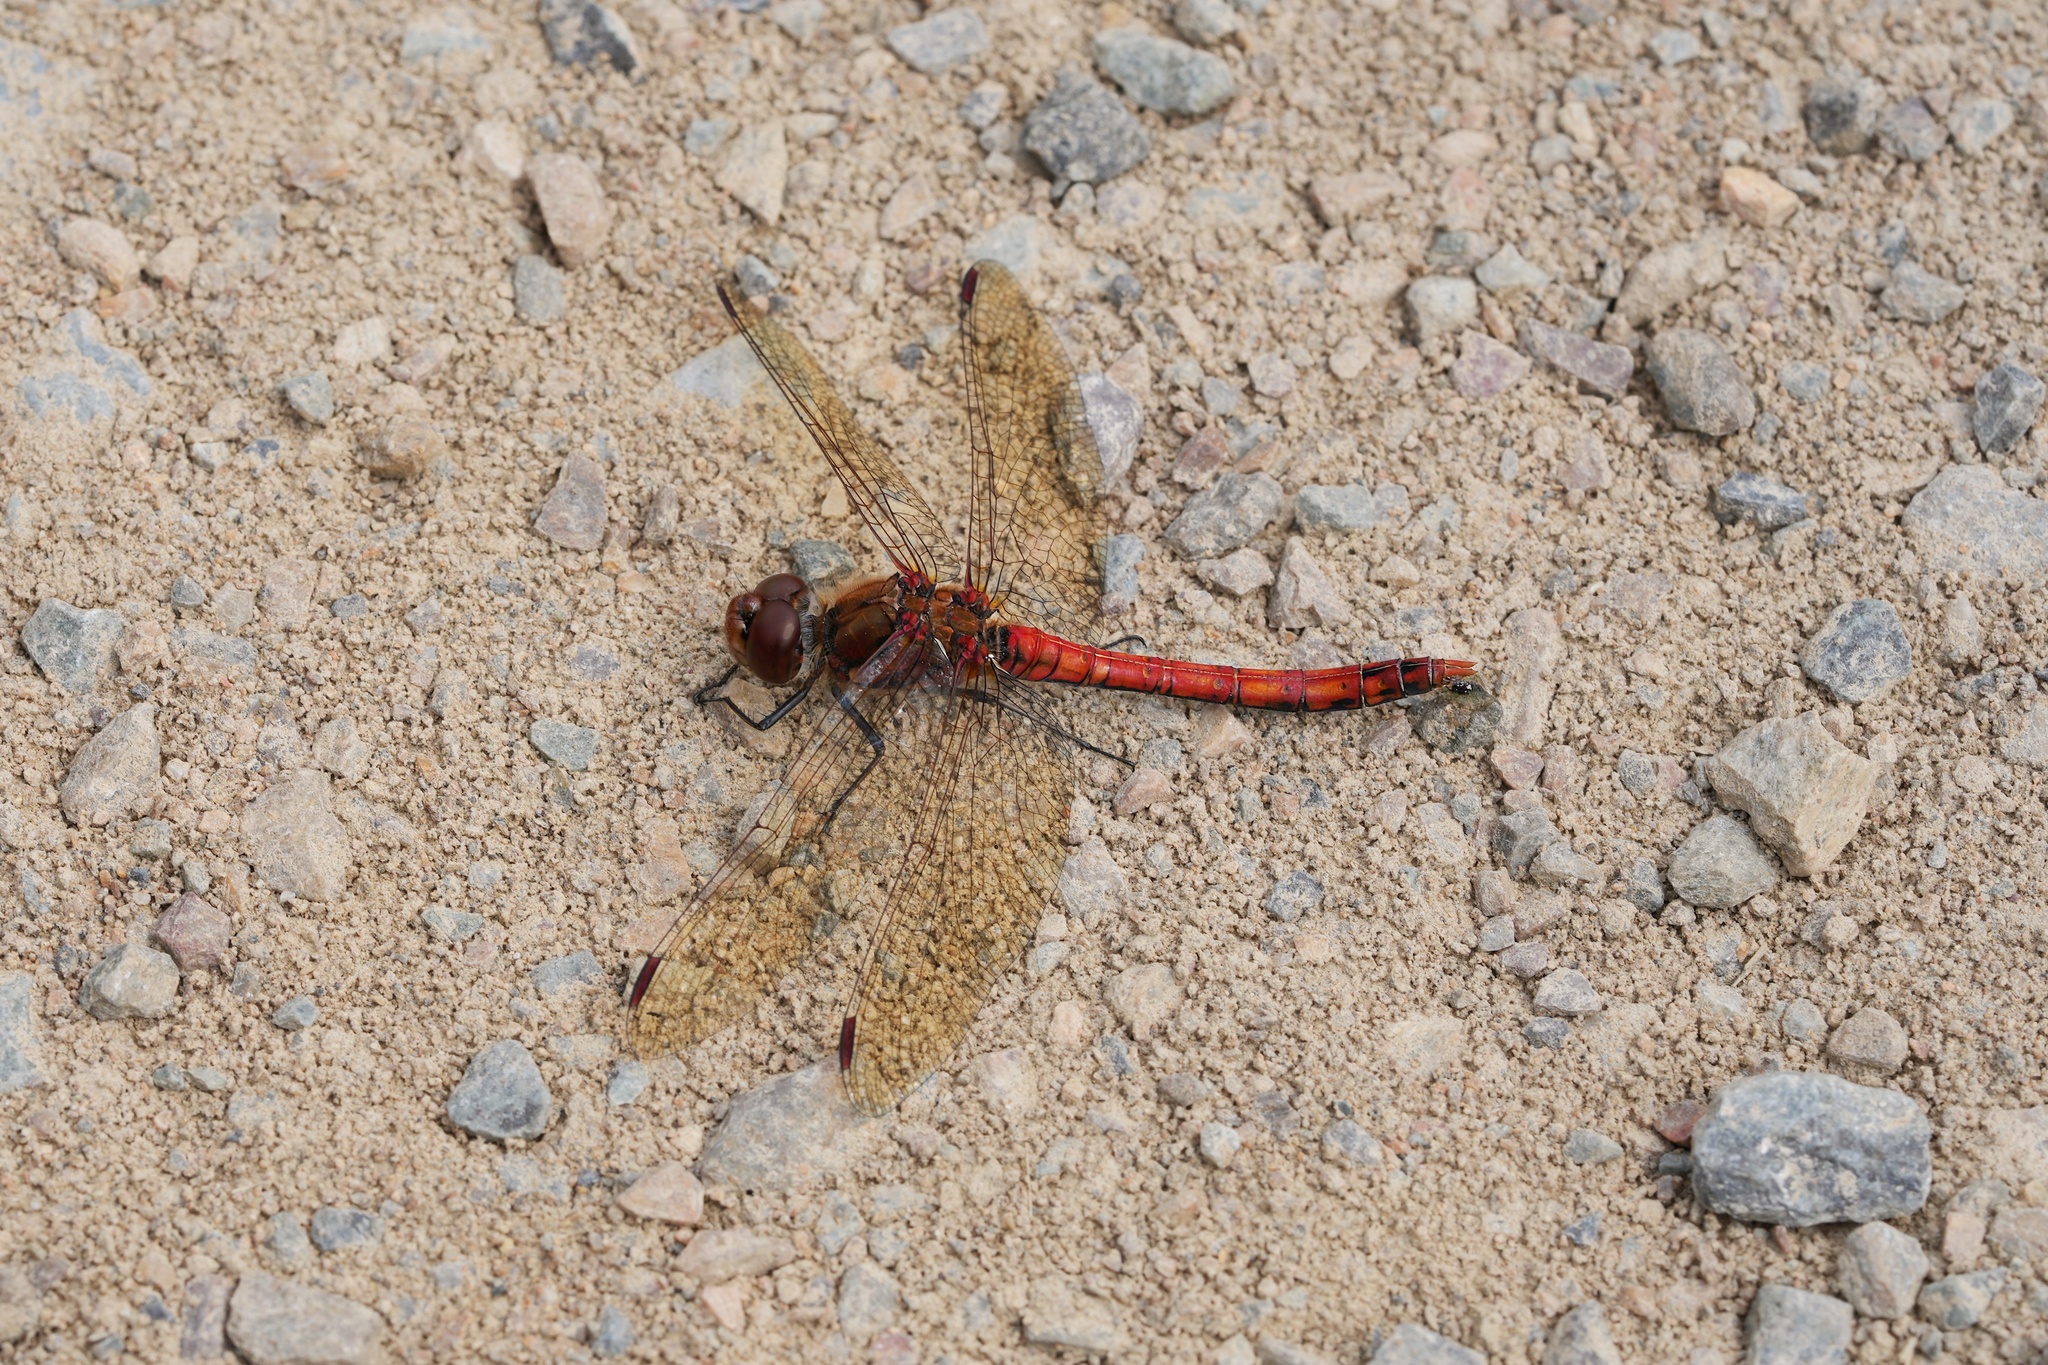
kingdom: Animalia
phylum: Arthropoda
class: Insecta
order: Odonata
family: Libellulidae
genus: Sympetrum
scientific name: Sympetrum striolatum
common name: Common darter
